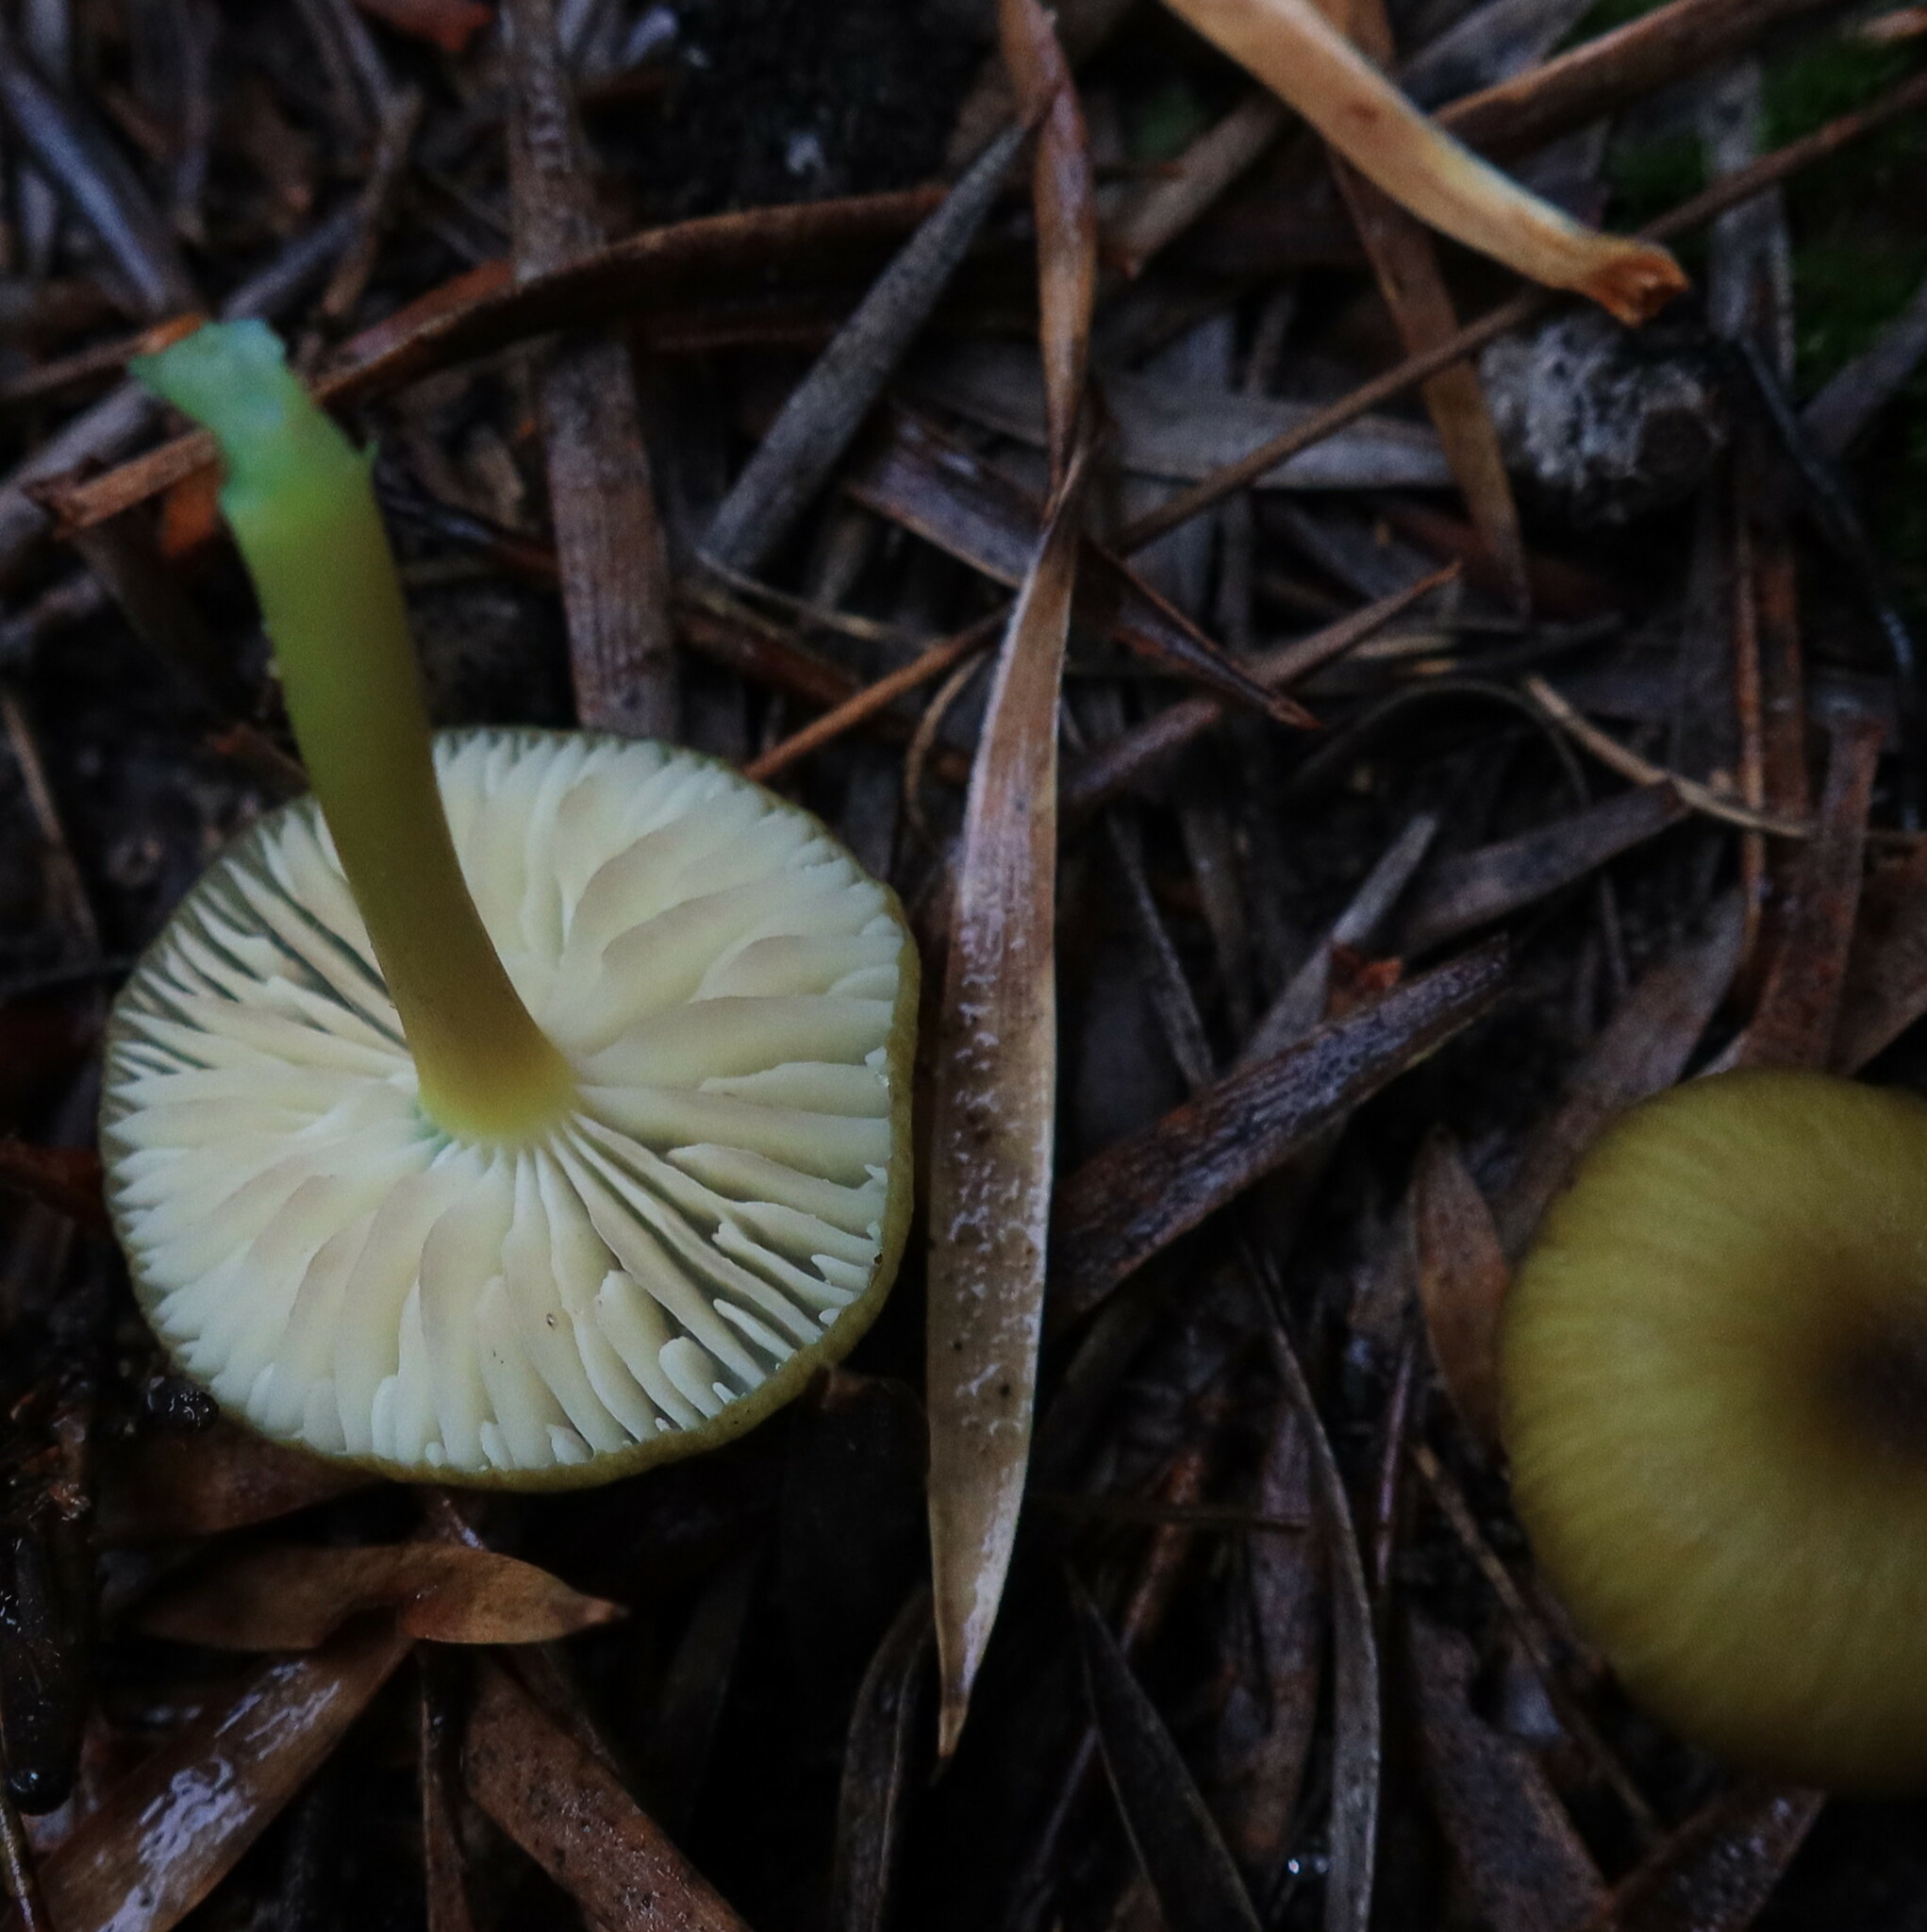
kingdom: Fungi
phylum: Basidiomycota
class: Agaricomycetes
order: Agaricales
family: Entolomataceae
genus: Entoloma
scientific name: Entoloma incanum
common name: Mousepee pinkgill
